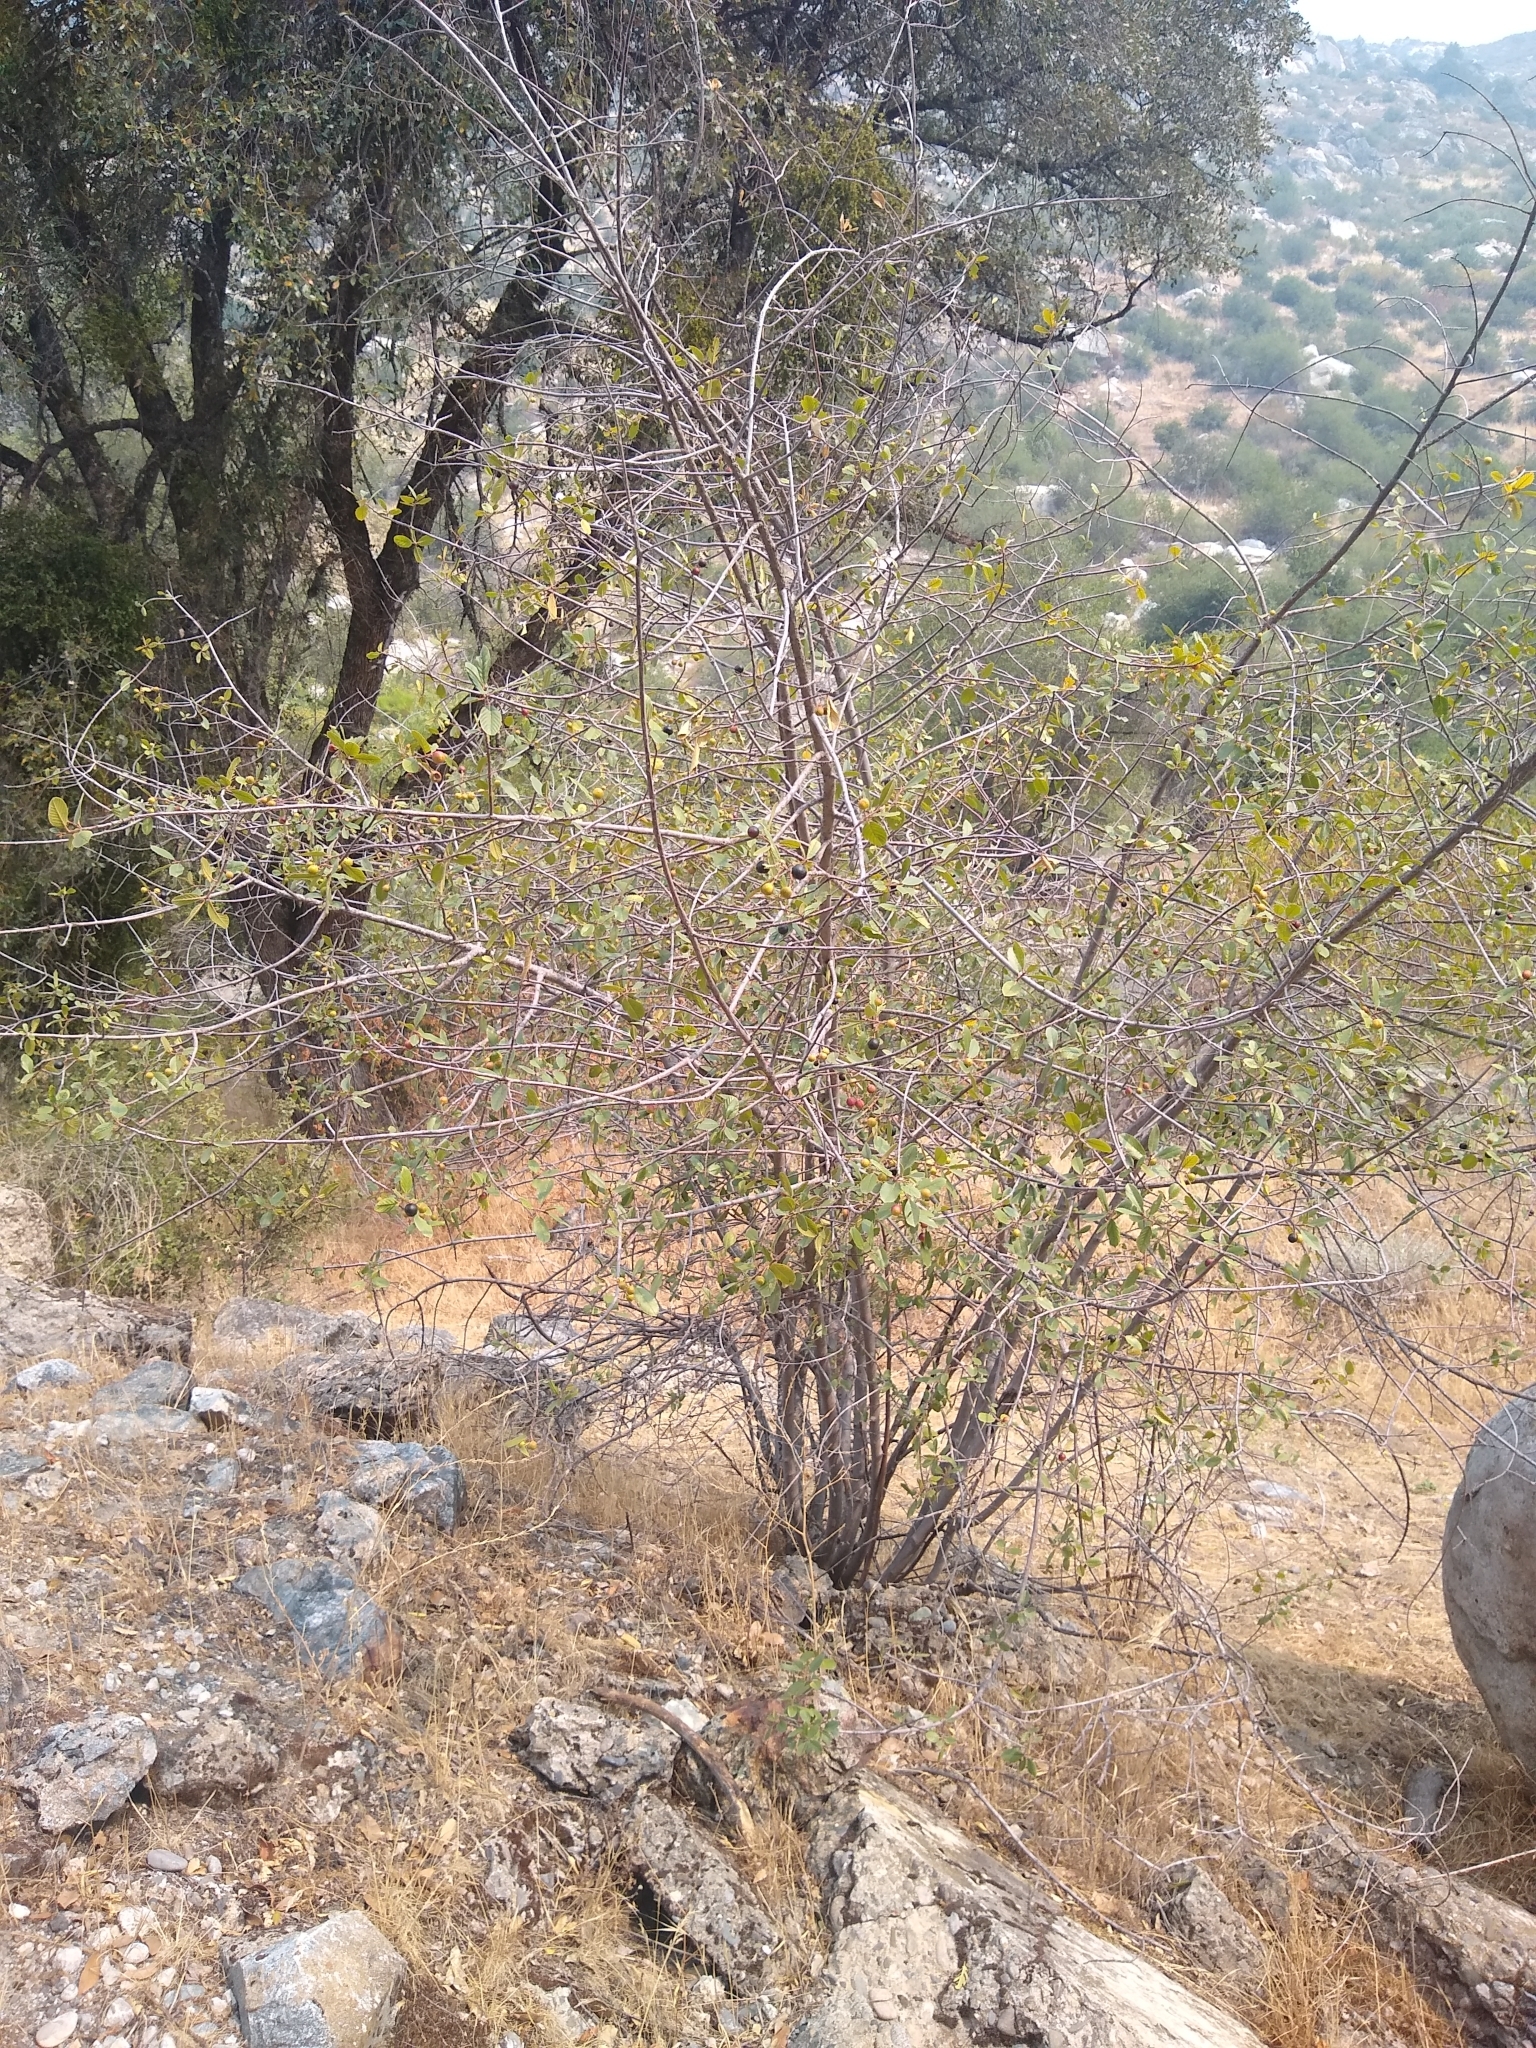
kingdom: Plantae
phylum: Tracheophyta
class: Magnoliopsida
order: Rosales
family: Rhamnaceae
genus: Frangula
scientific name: Frangula californica
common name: California buckthorn
